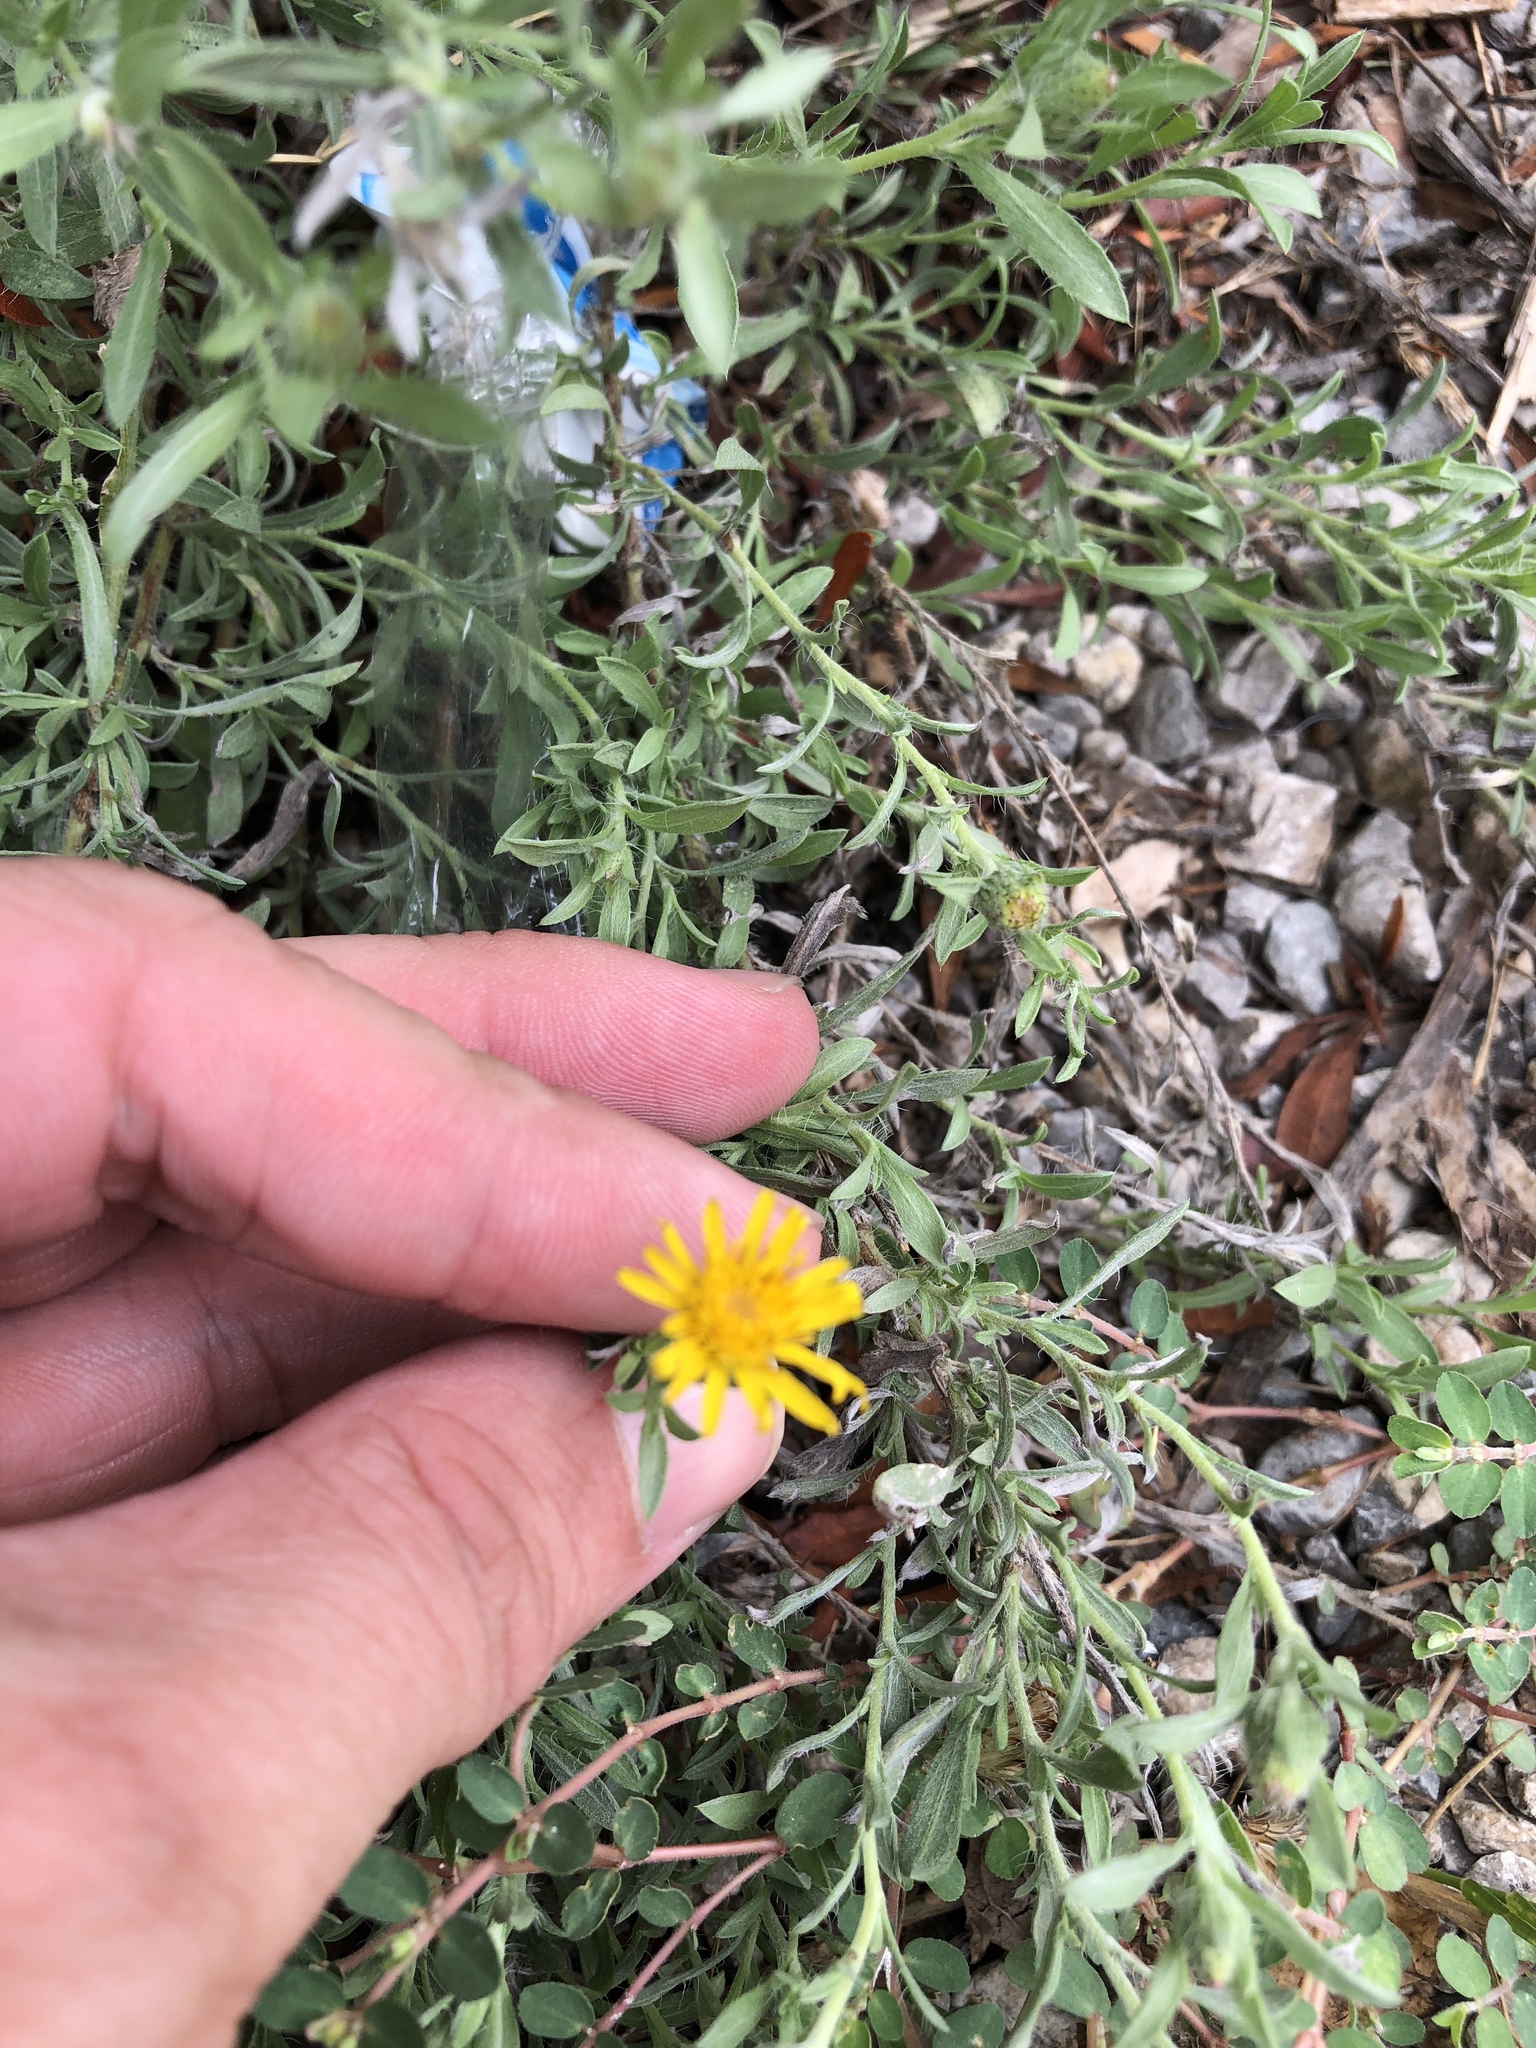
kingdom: Plantae
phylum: Tracheophyta
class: Magnoliopsida
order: Asterales
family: Asteraceae
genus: Heterotheca
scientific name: Heterotheca canescens
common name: Hoary golden-aster
